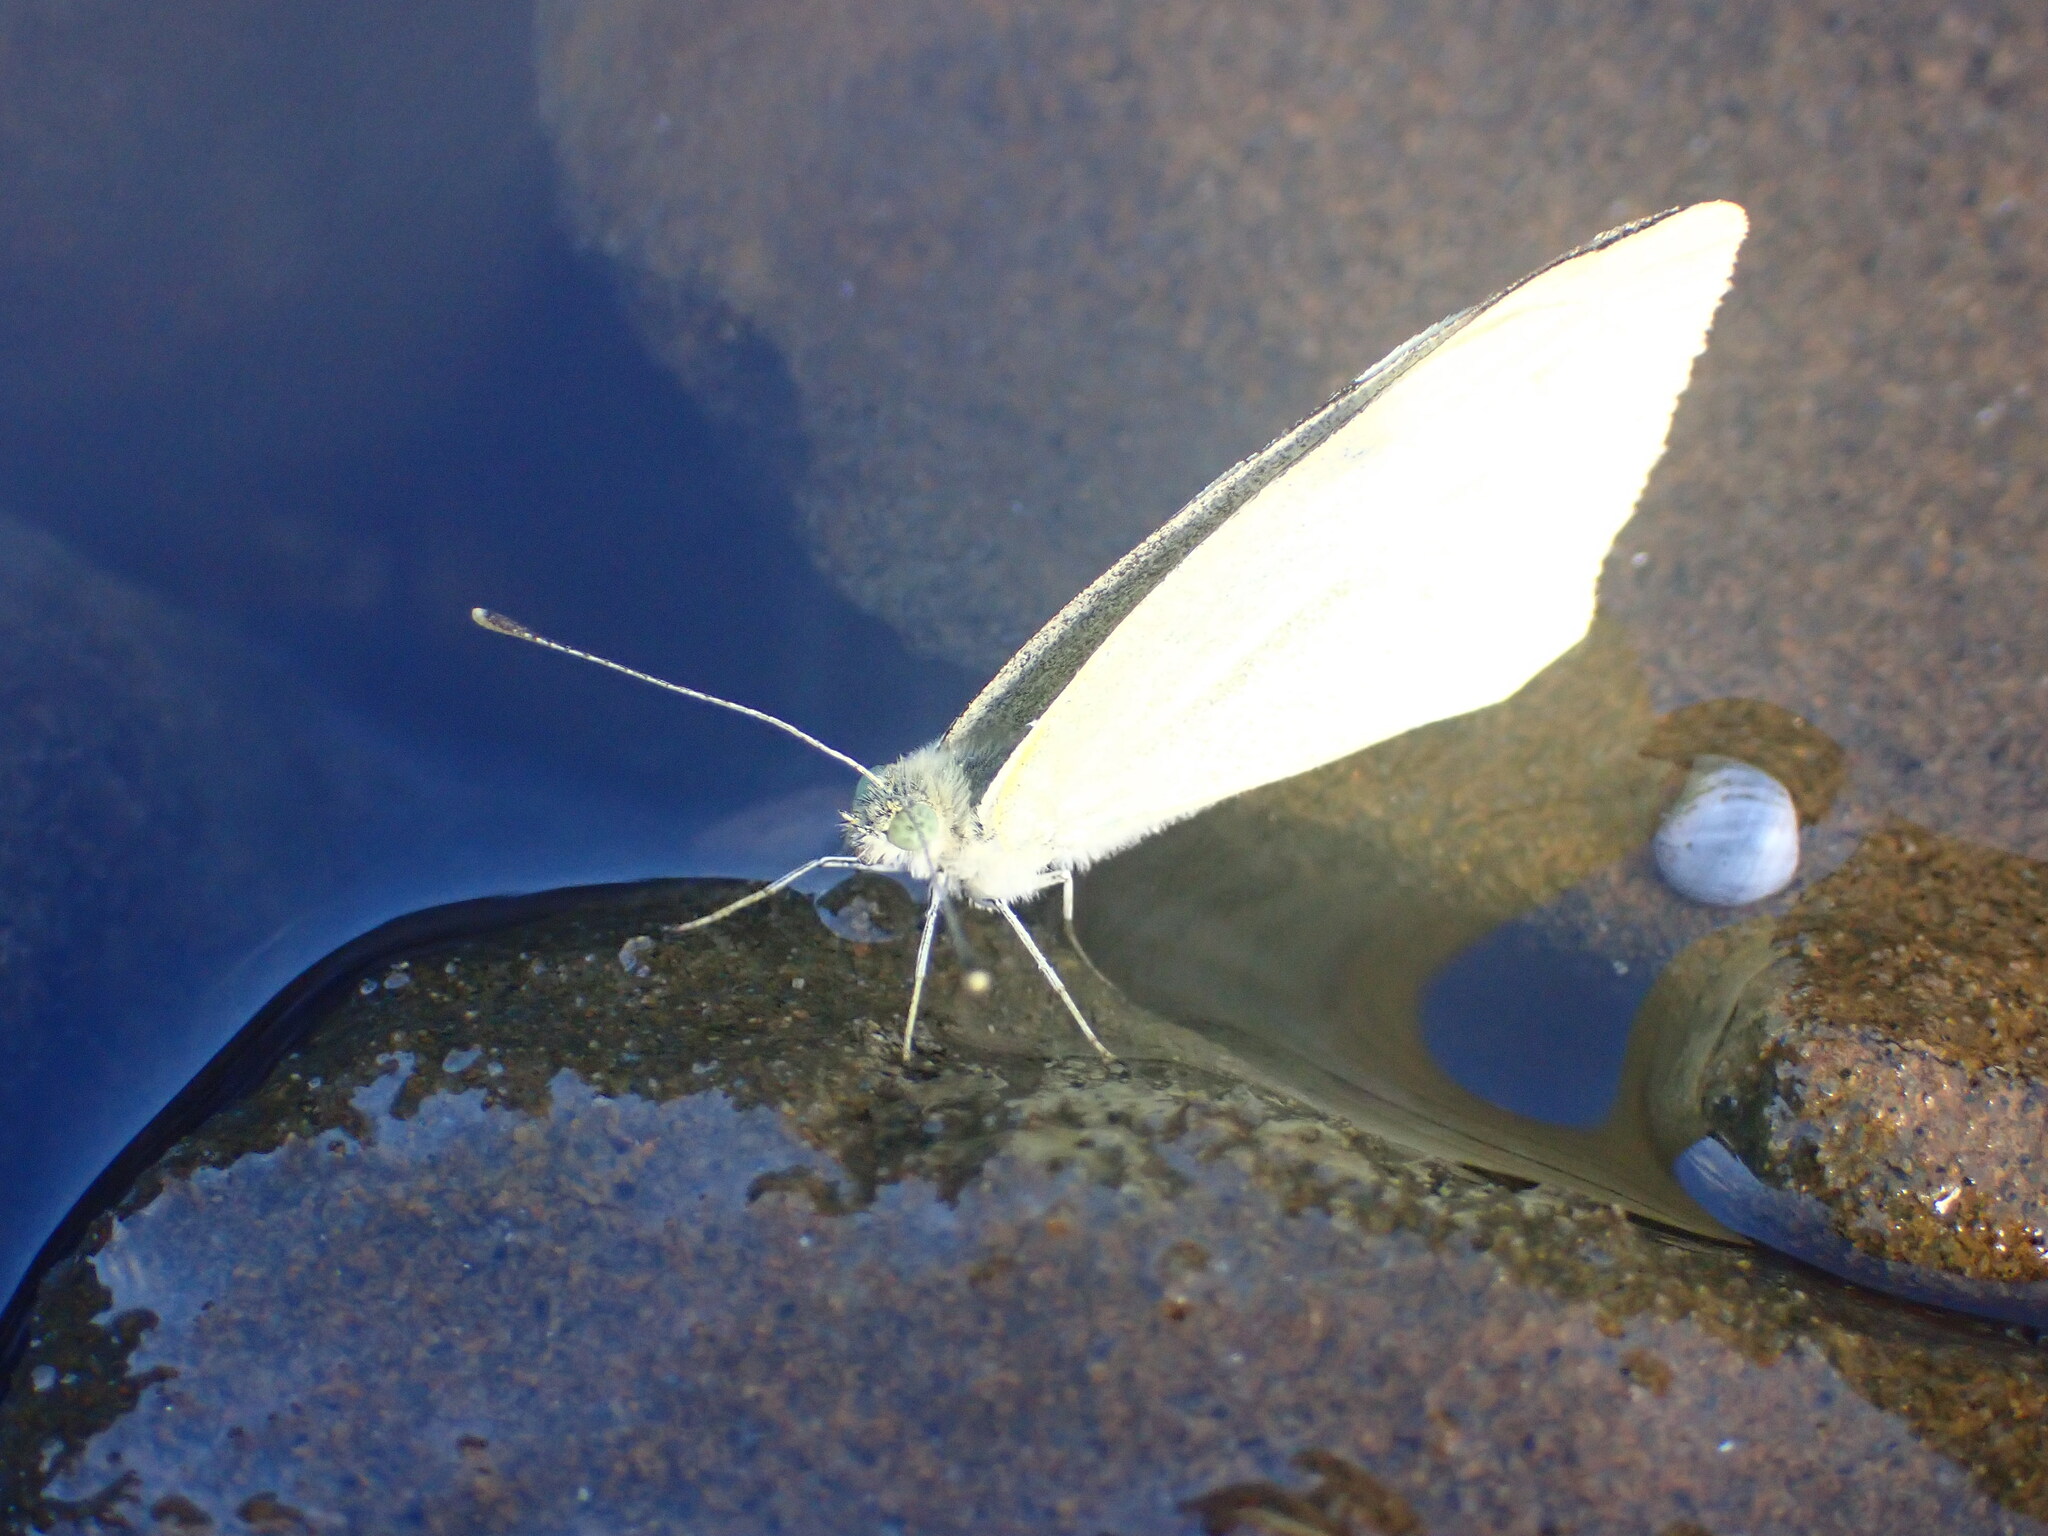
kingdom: Animalia
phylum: Arthropoda
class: Insecta
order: Lepidoptera
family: Pieridae
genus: Pieris
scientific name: Pieris rapae
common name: Small white
